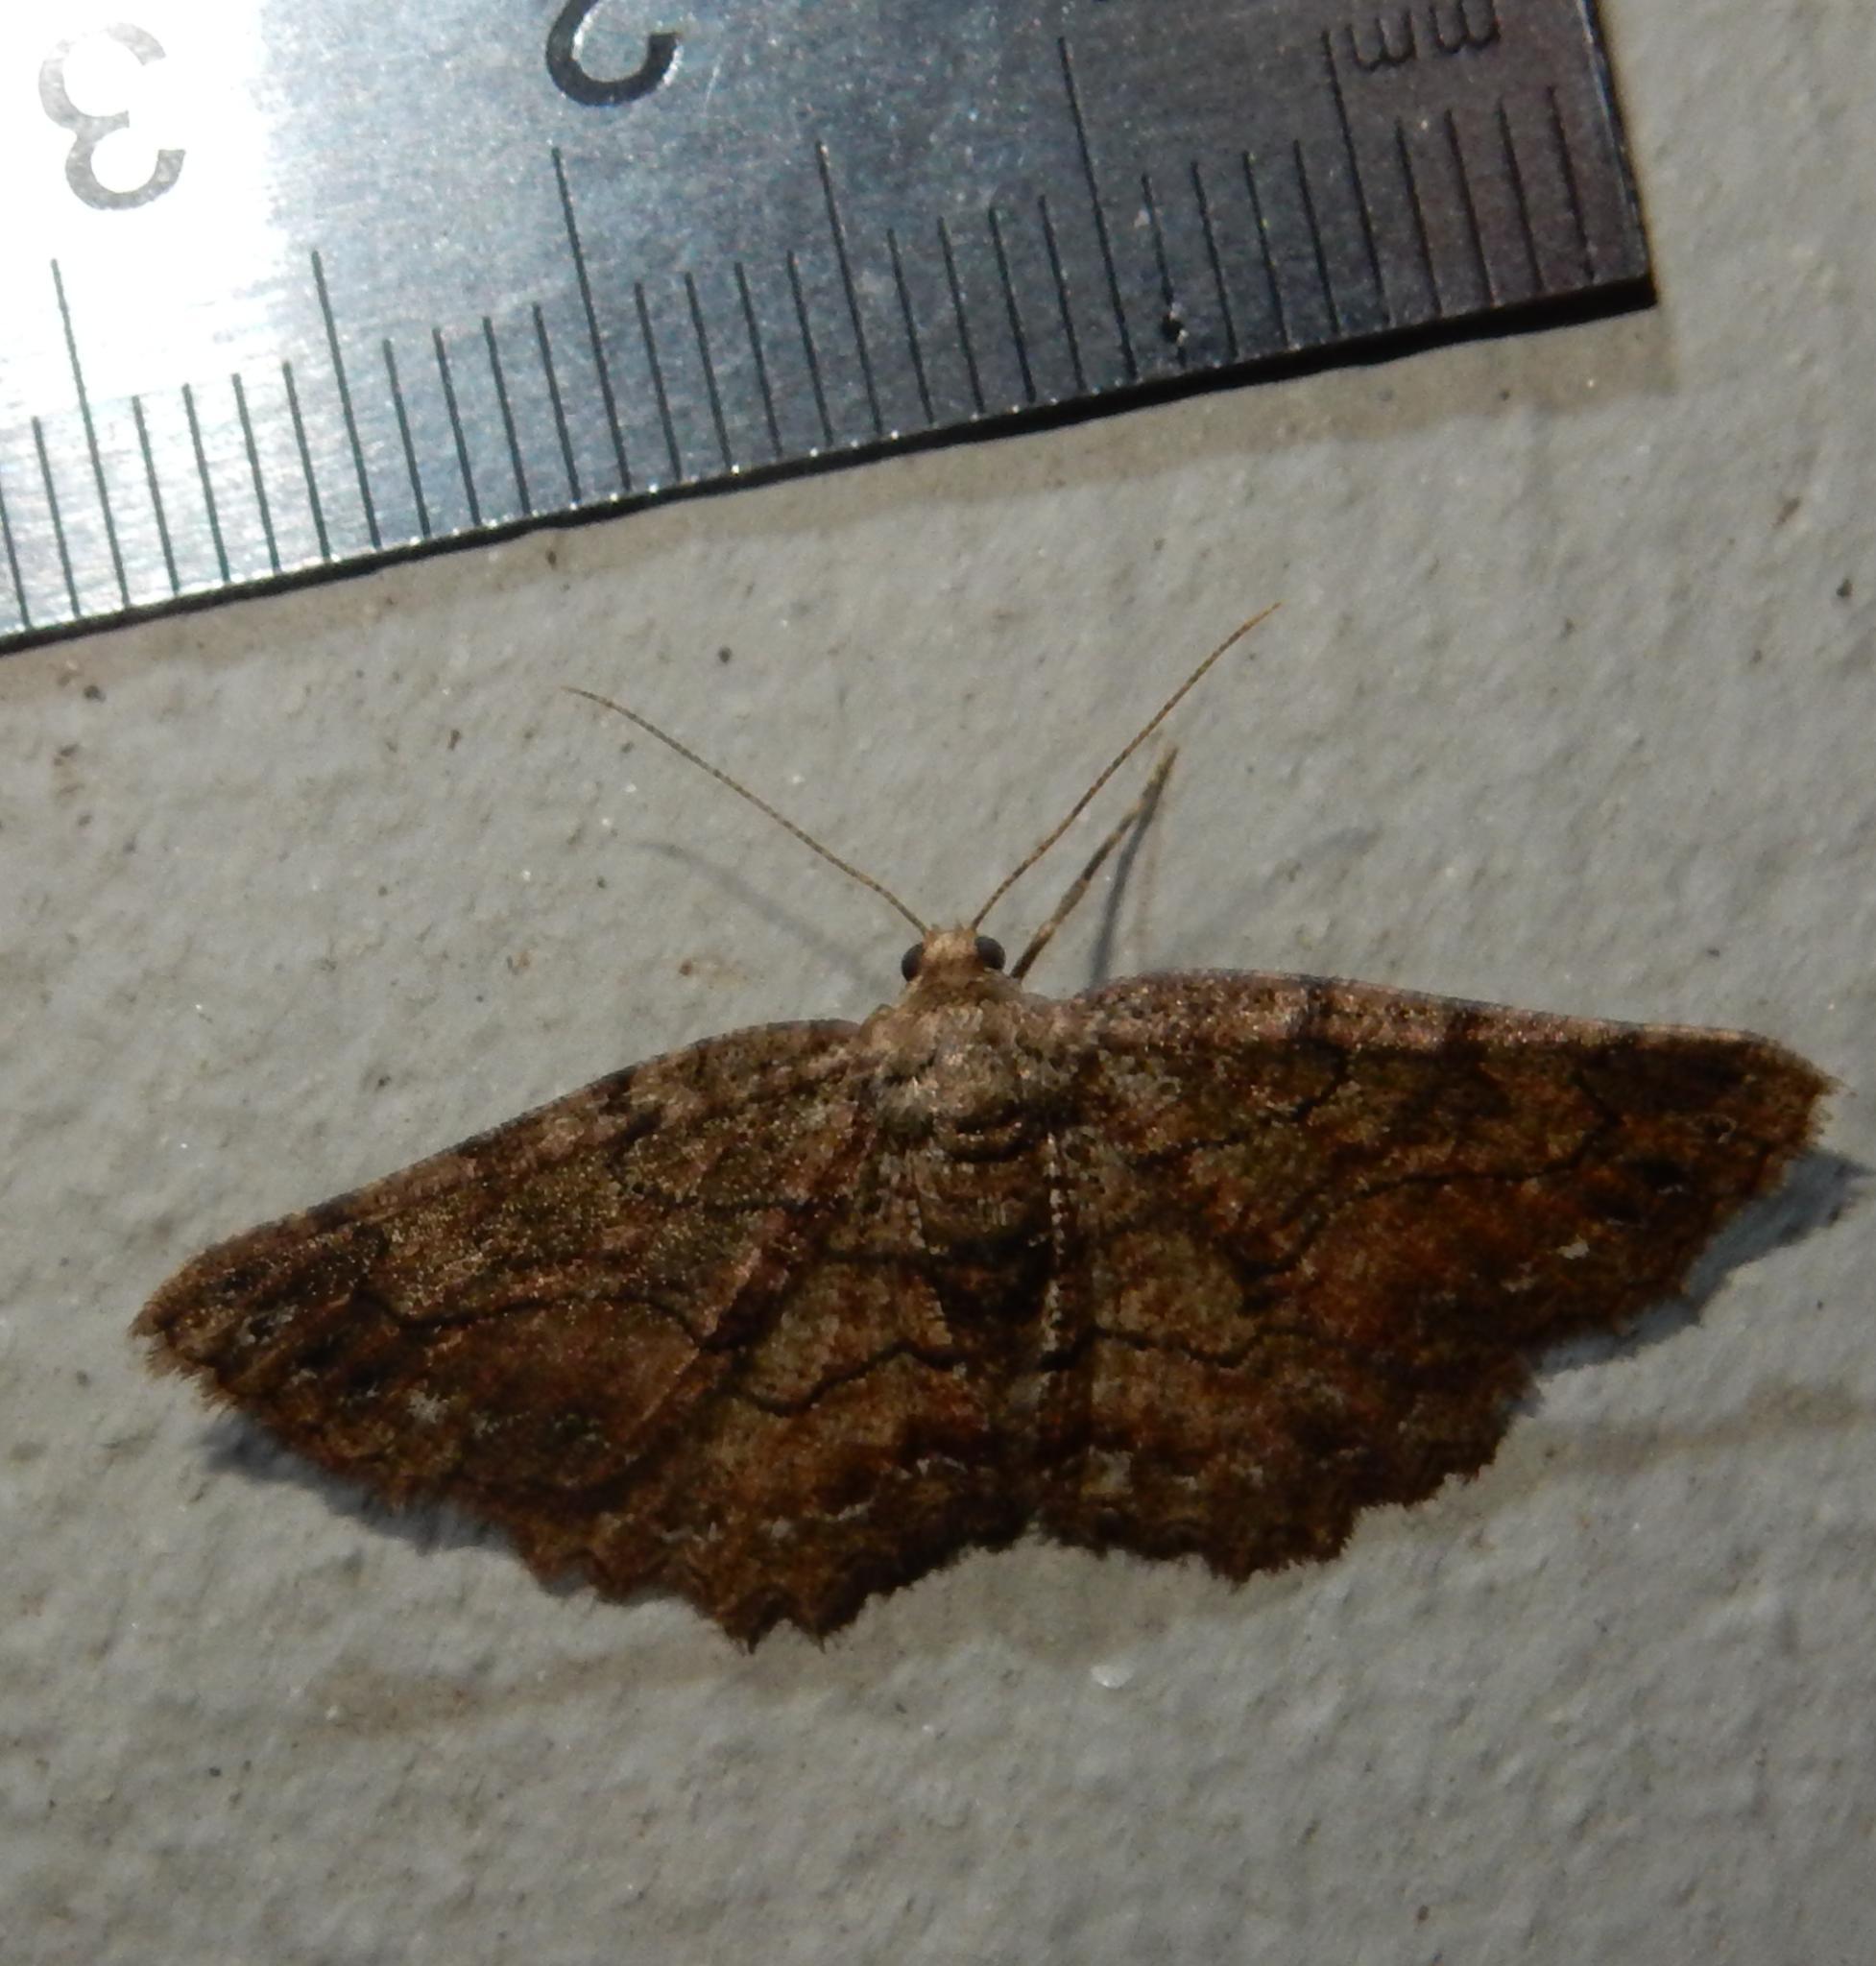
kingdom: Animalia
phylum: Arthropoda
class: Insecta
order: Lepidoptera
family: Geometridae
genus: Menophra
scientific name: Menophra serrataria
